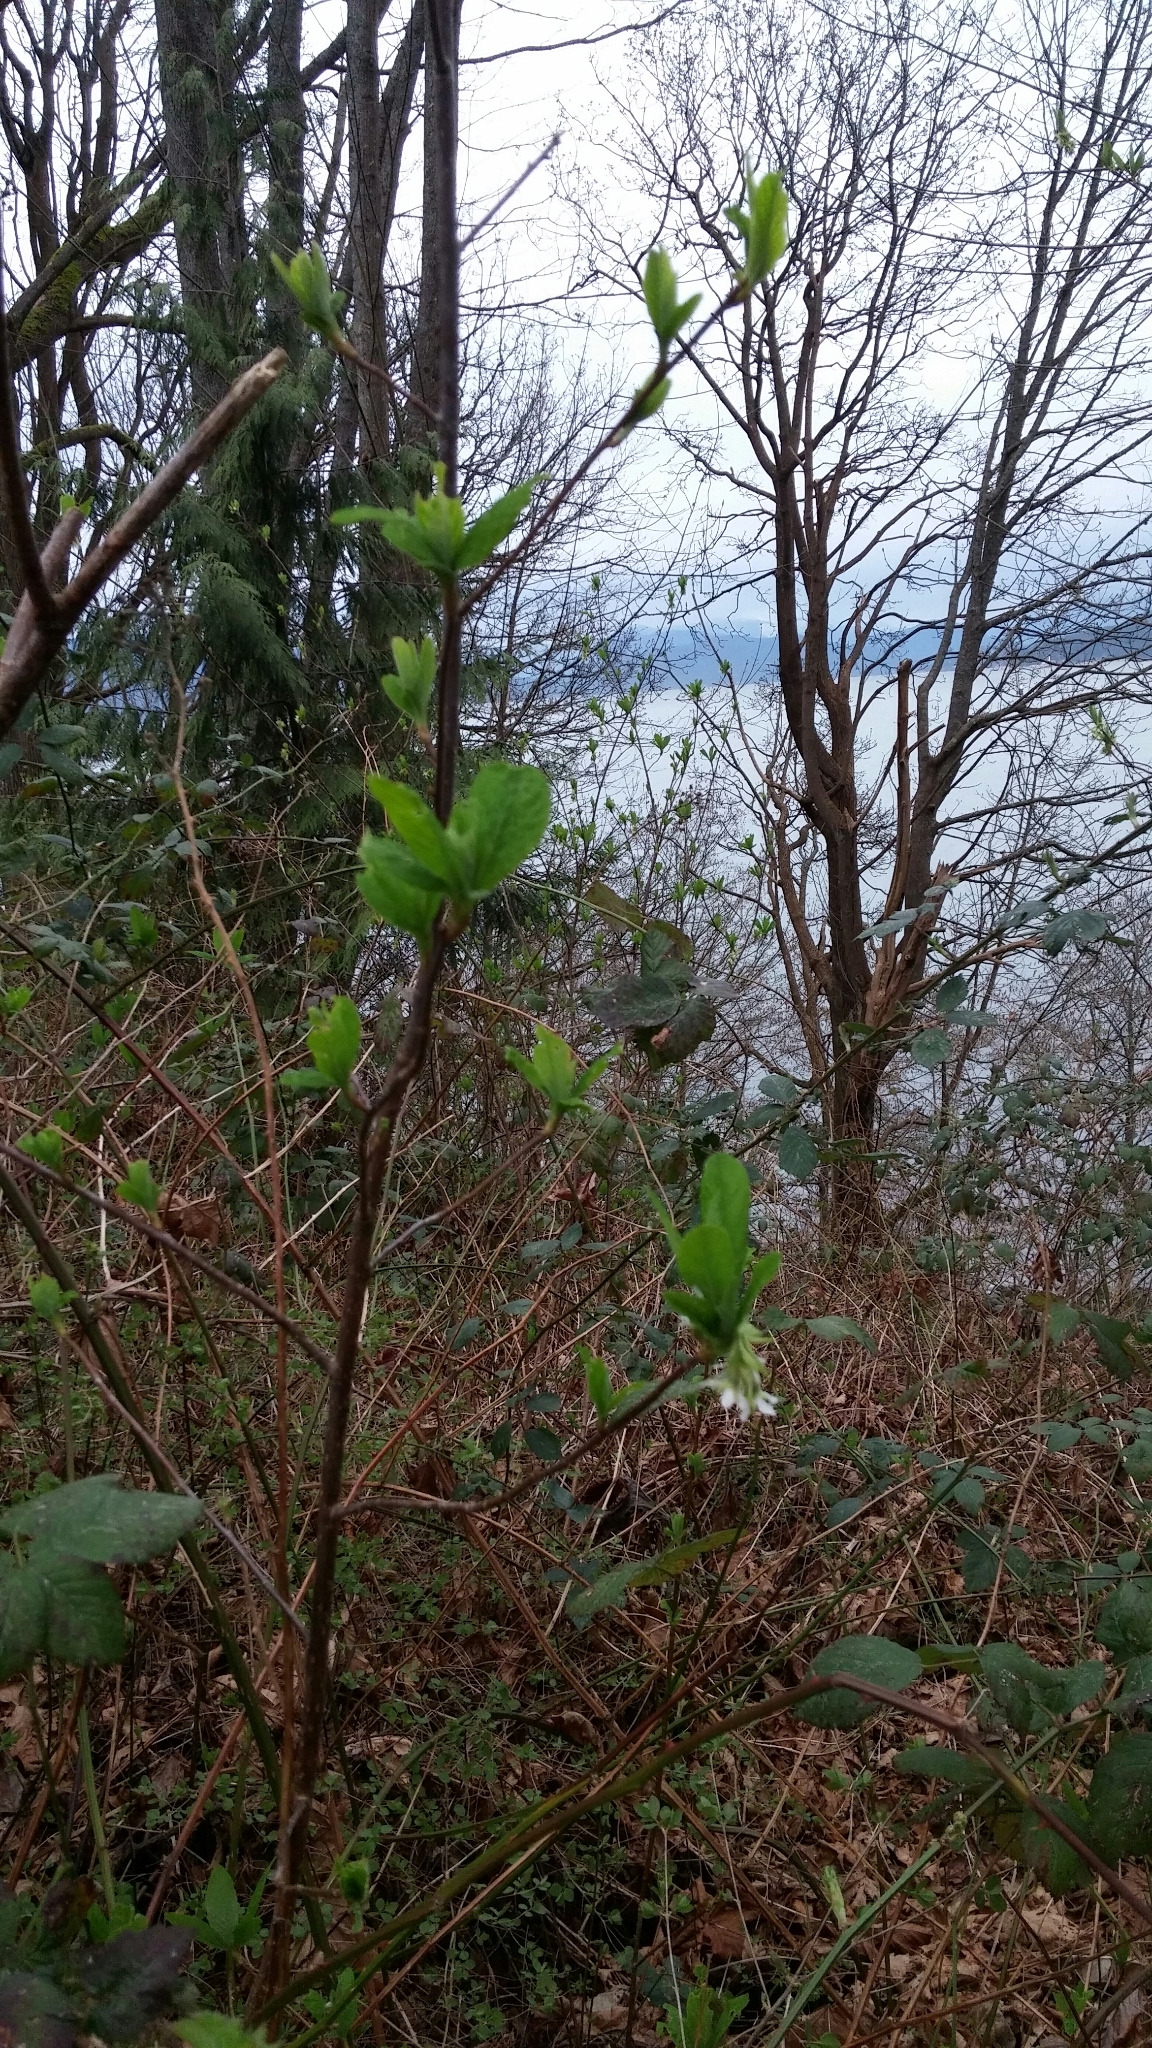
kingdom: Plantae
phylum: Tracheophyta
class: Magnoliopsida
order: Rosales
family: Rosaceae
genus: Oemleria
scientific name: Oemleria cerasiformis
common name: Osoberry
